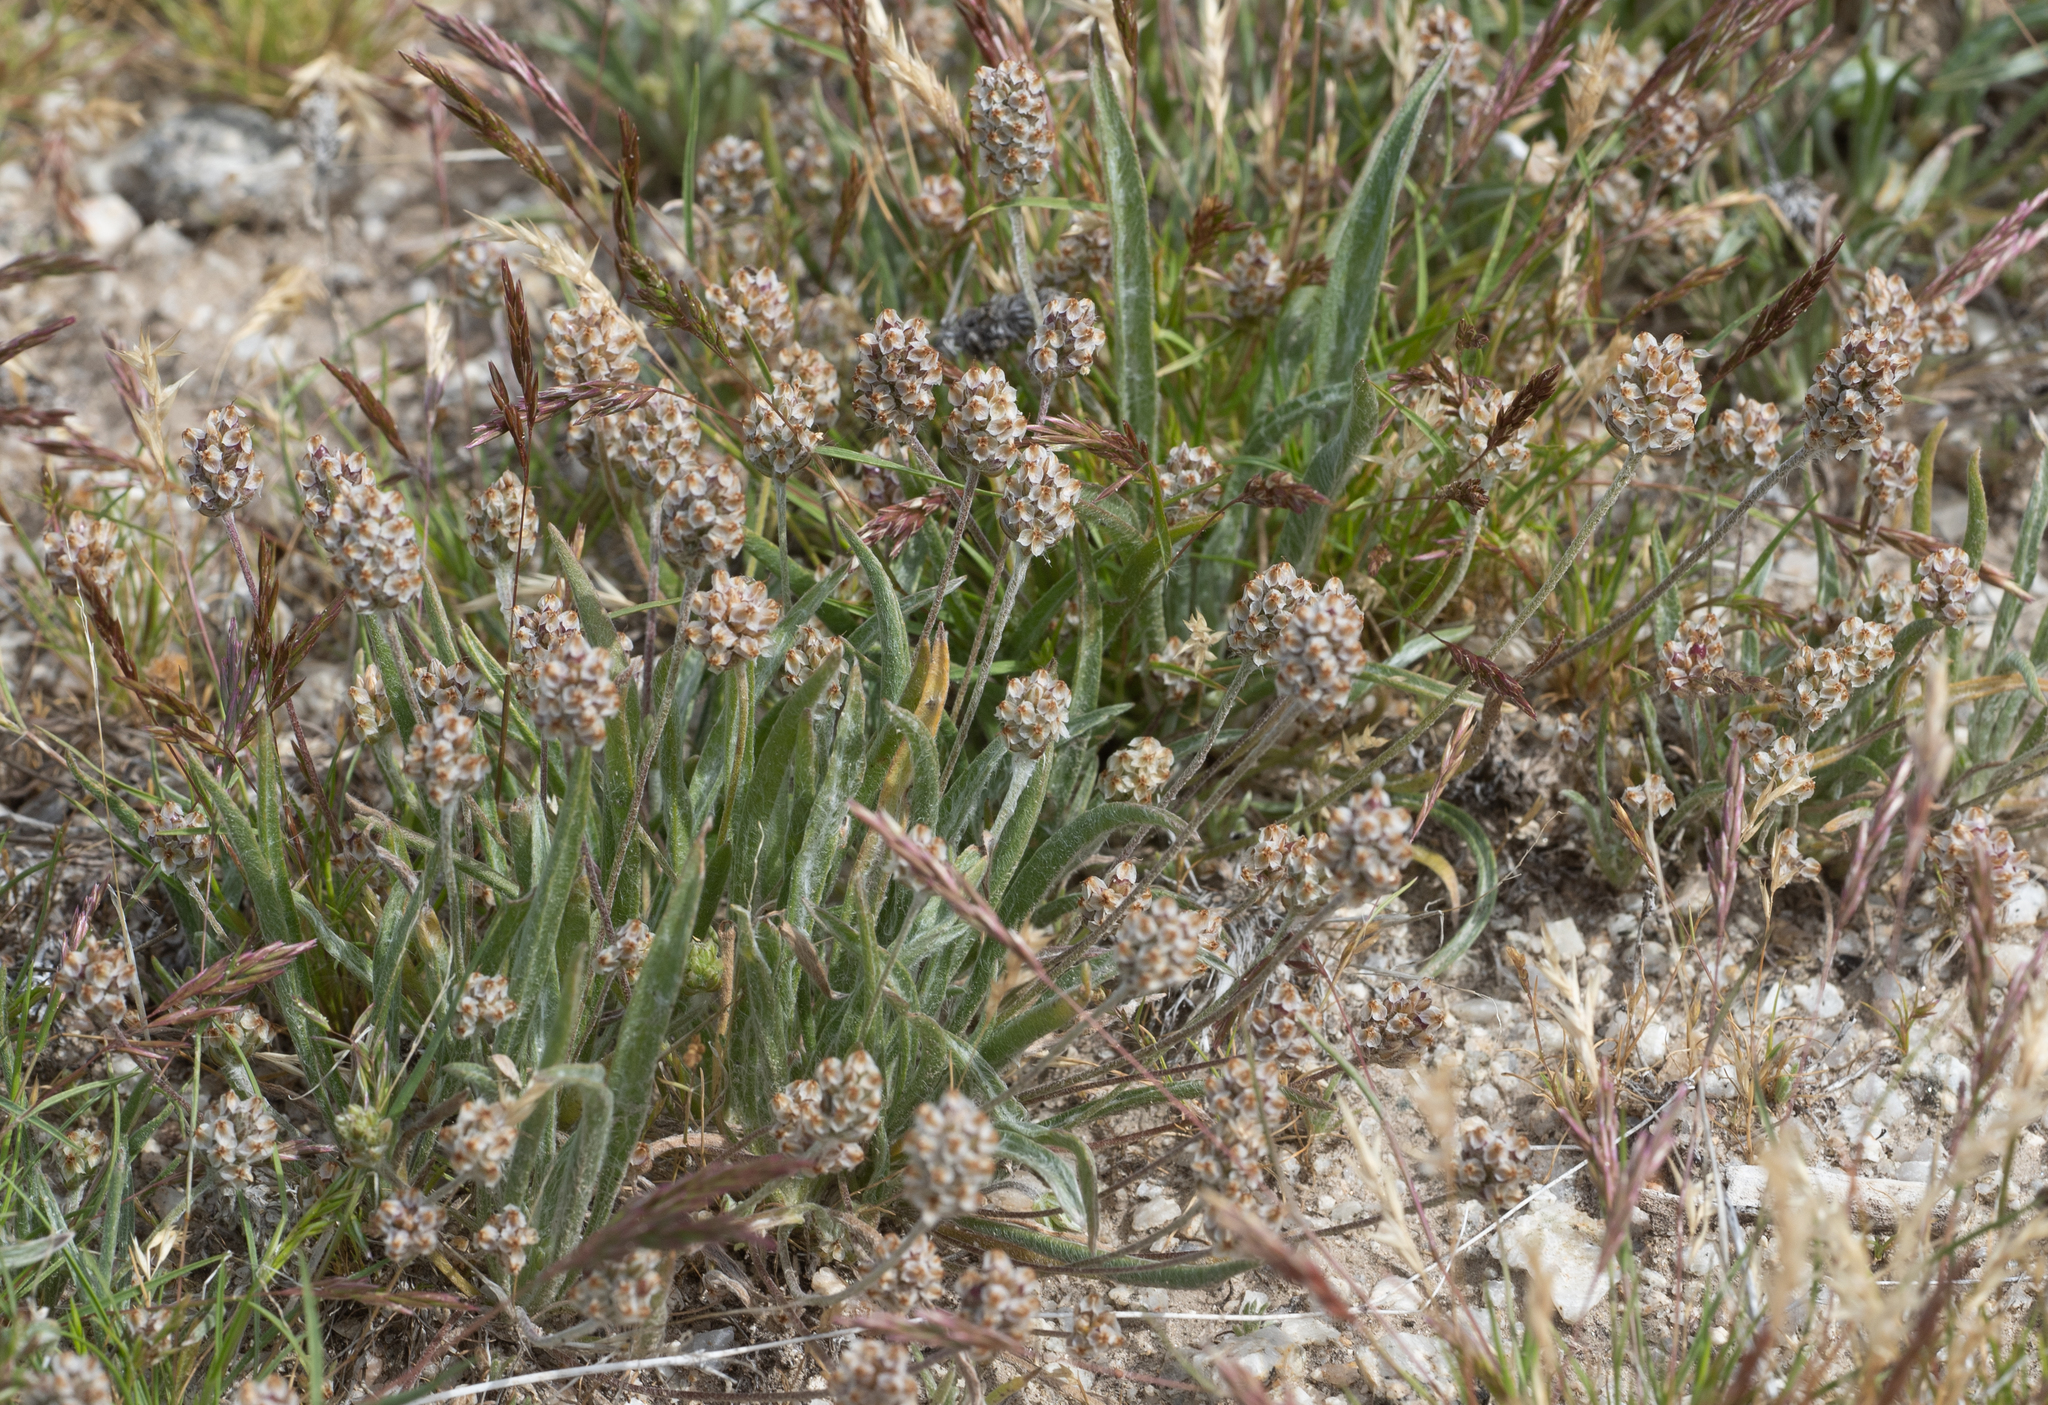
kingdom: Plantae
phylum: Tracheophyta
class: Magnoliopsida
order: Lamiales
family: Plantaginaceae
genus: Plantago
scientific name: Plantago ovata
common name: Blond plantain
